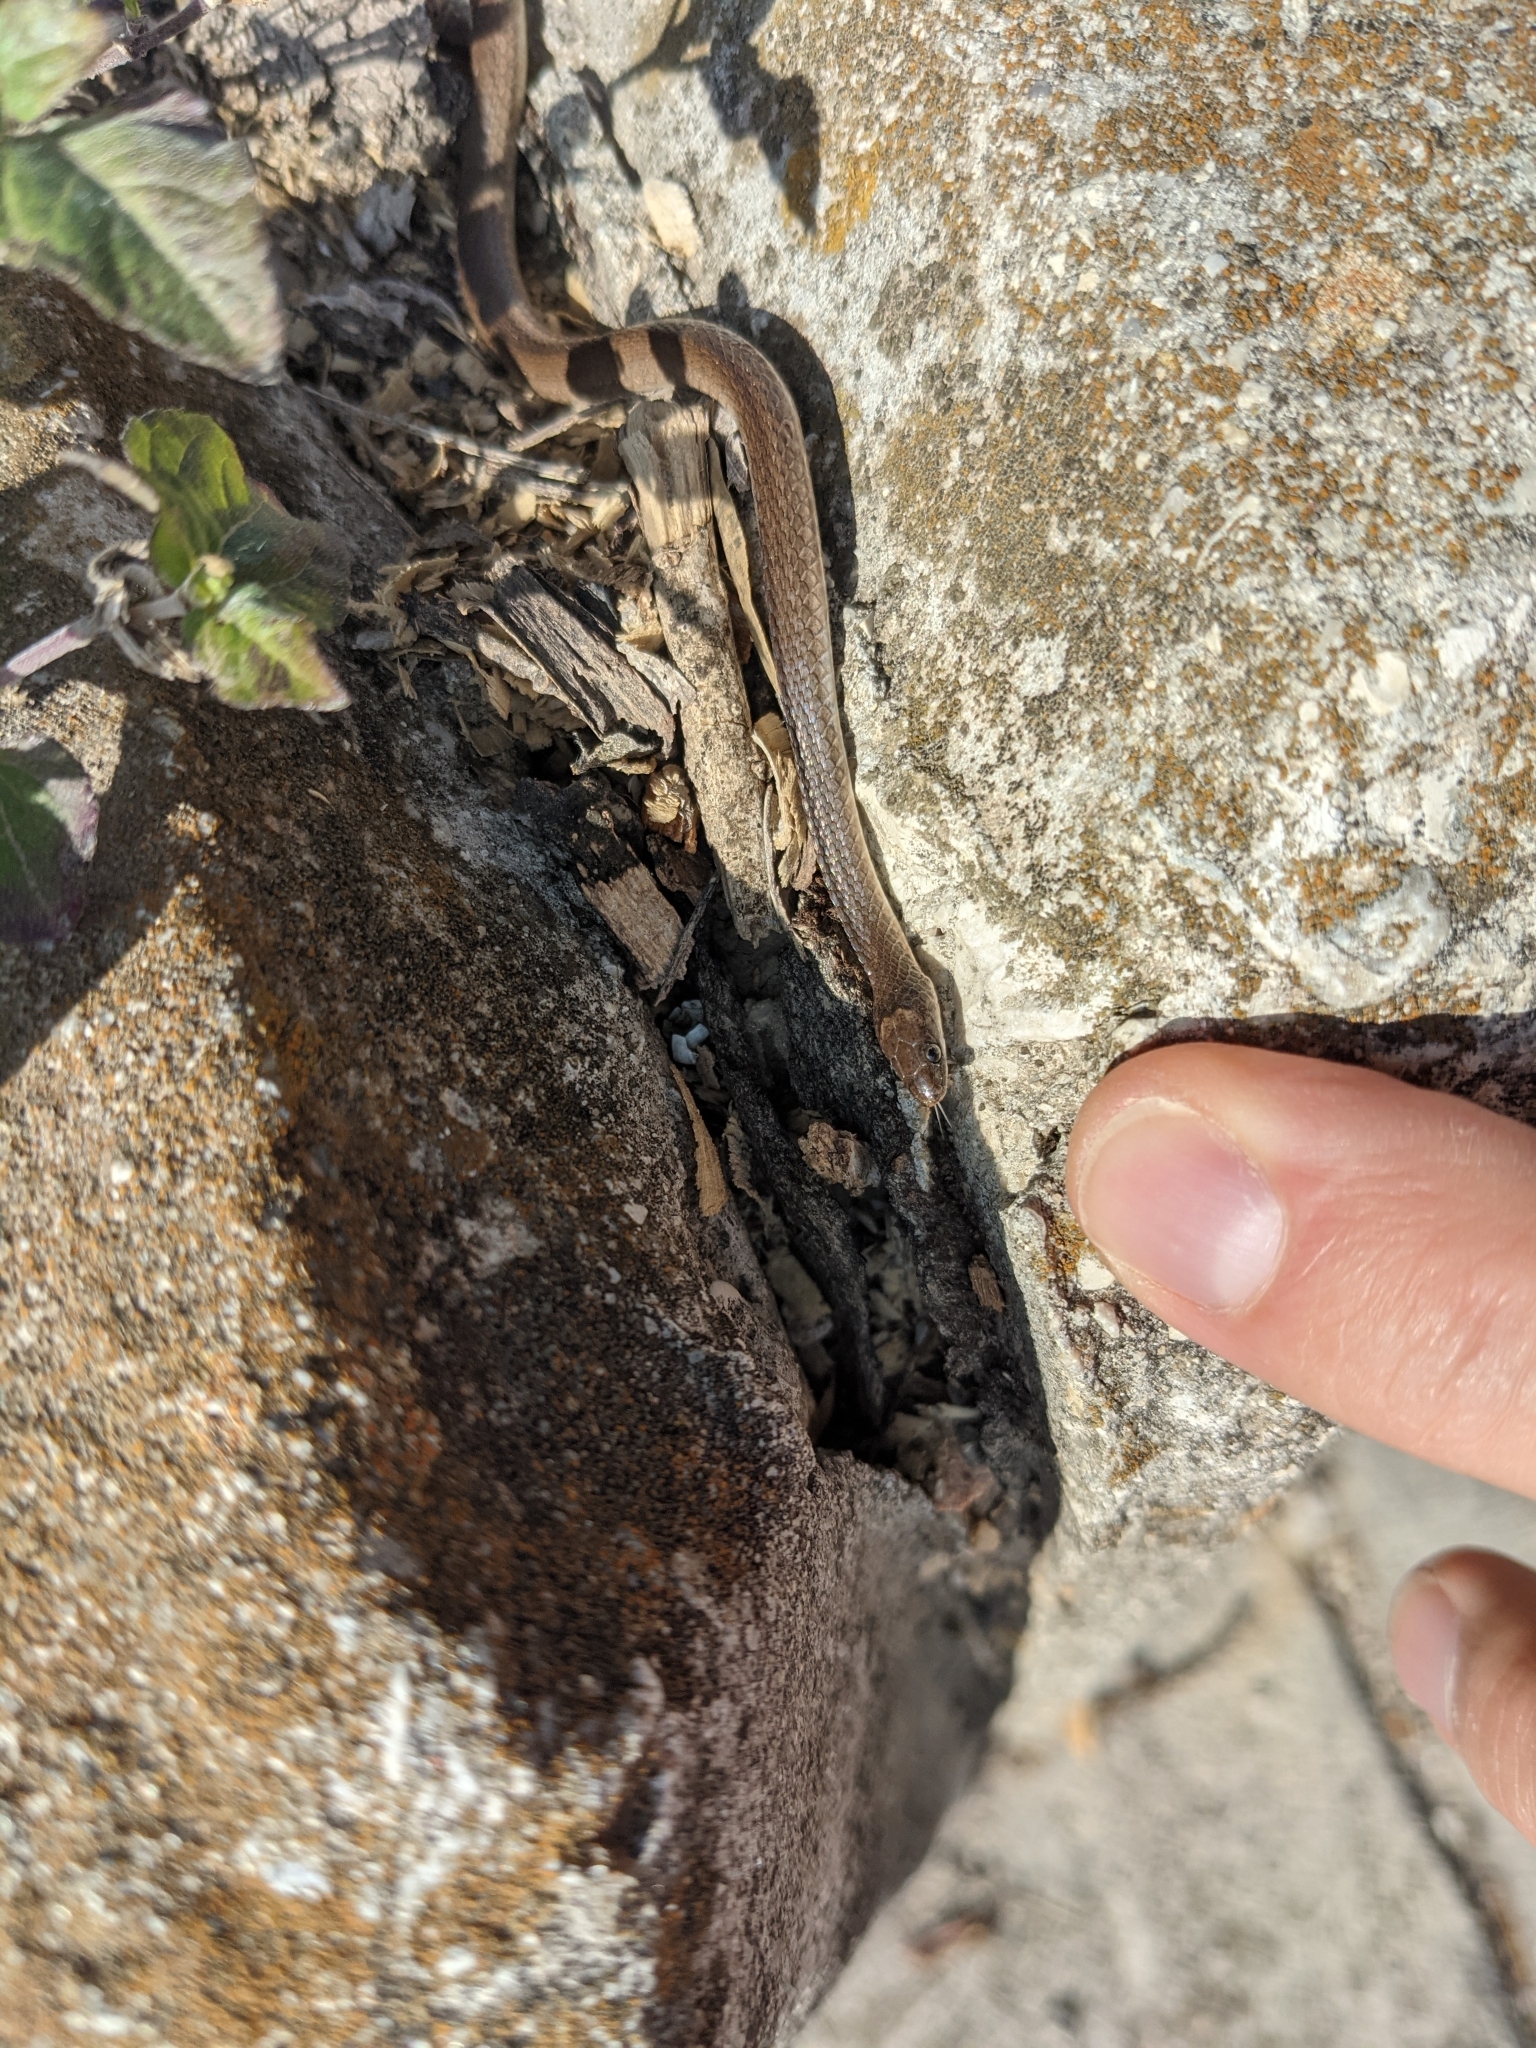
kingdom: Animalia
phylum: Chordata
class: Squamata
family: Colubridae
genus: Haldea
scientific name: Haldea striatula
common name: Rough earth snake
